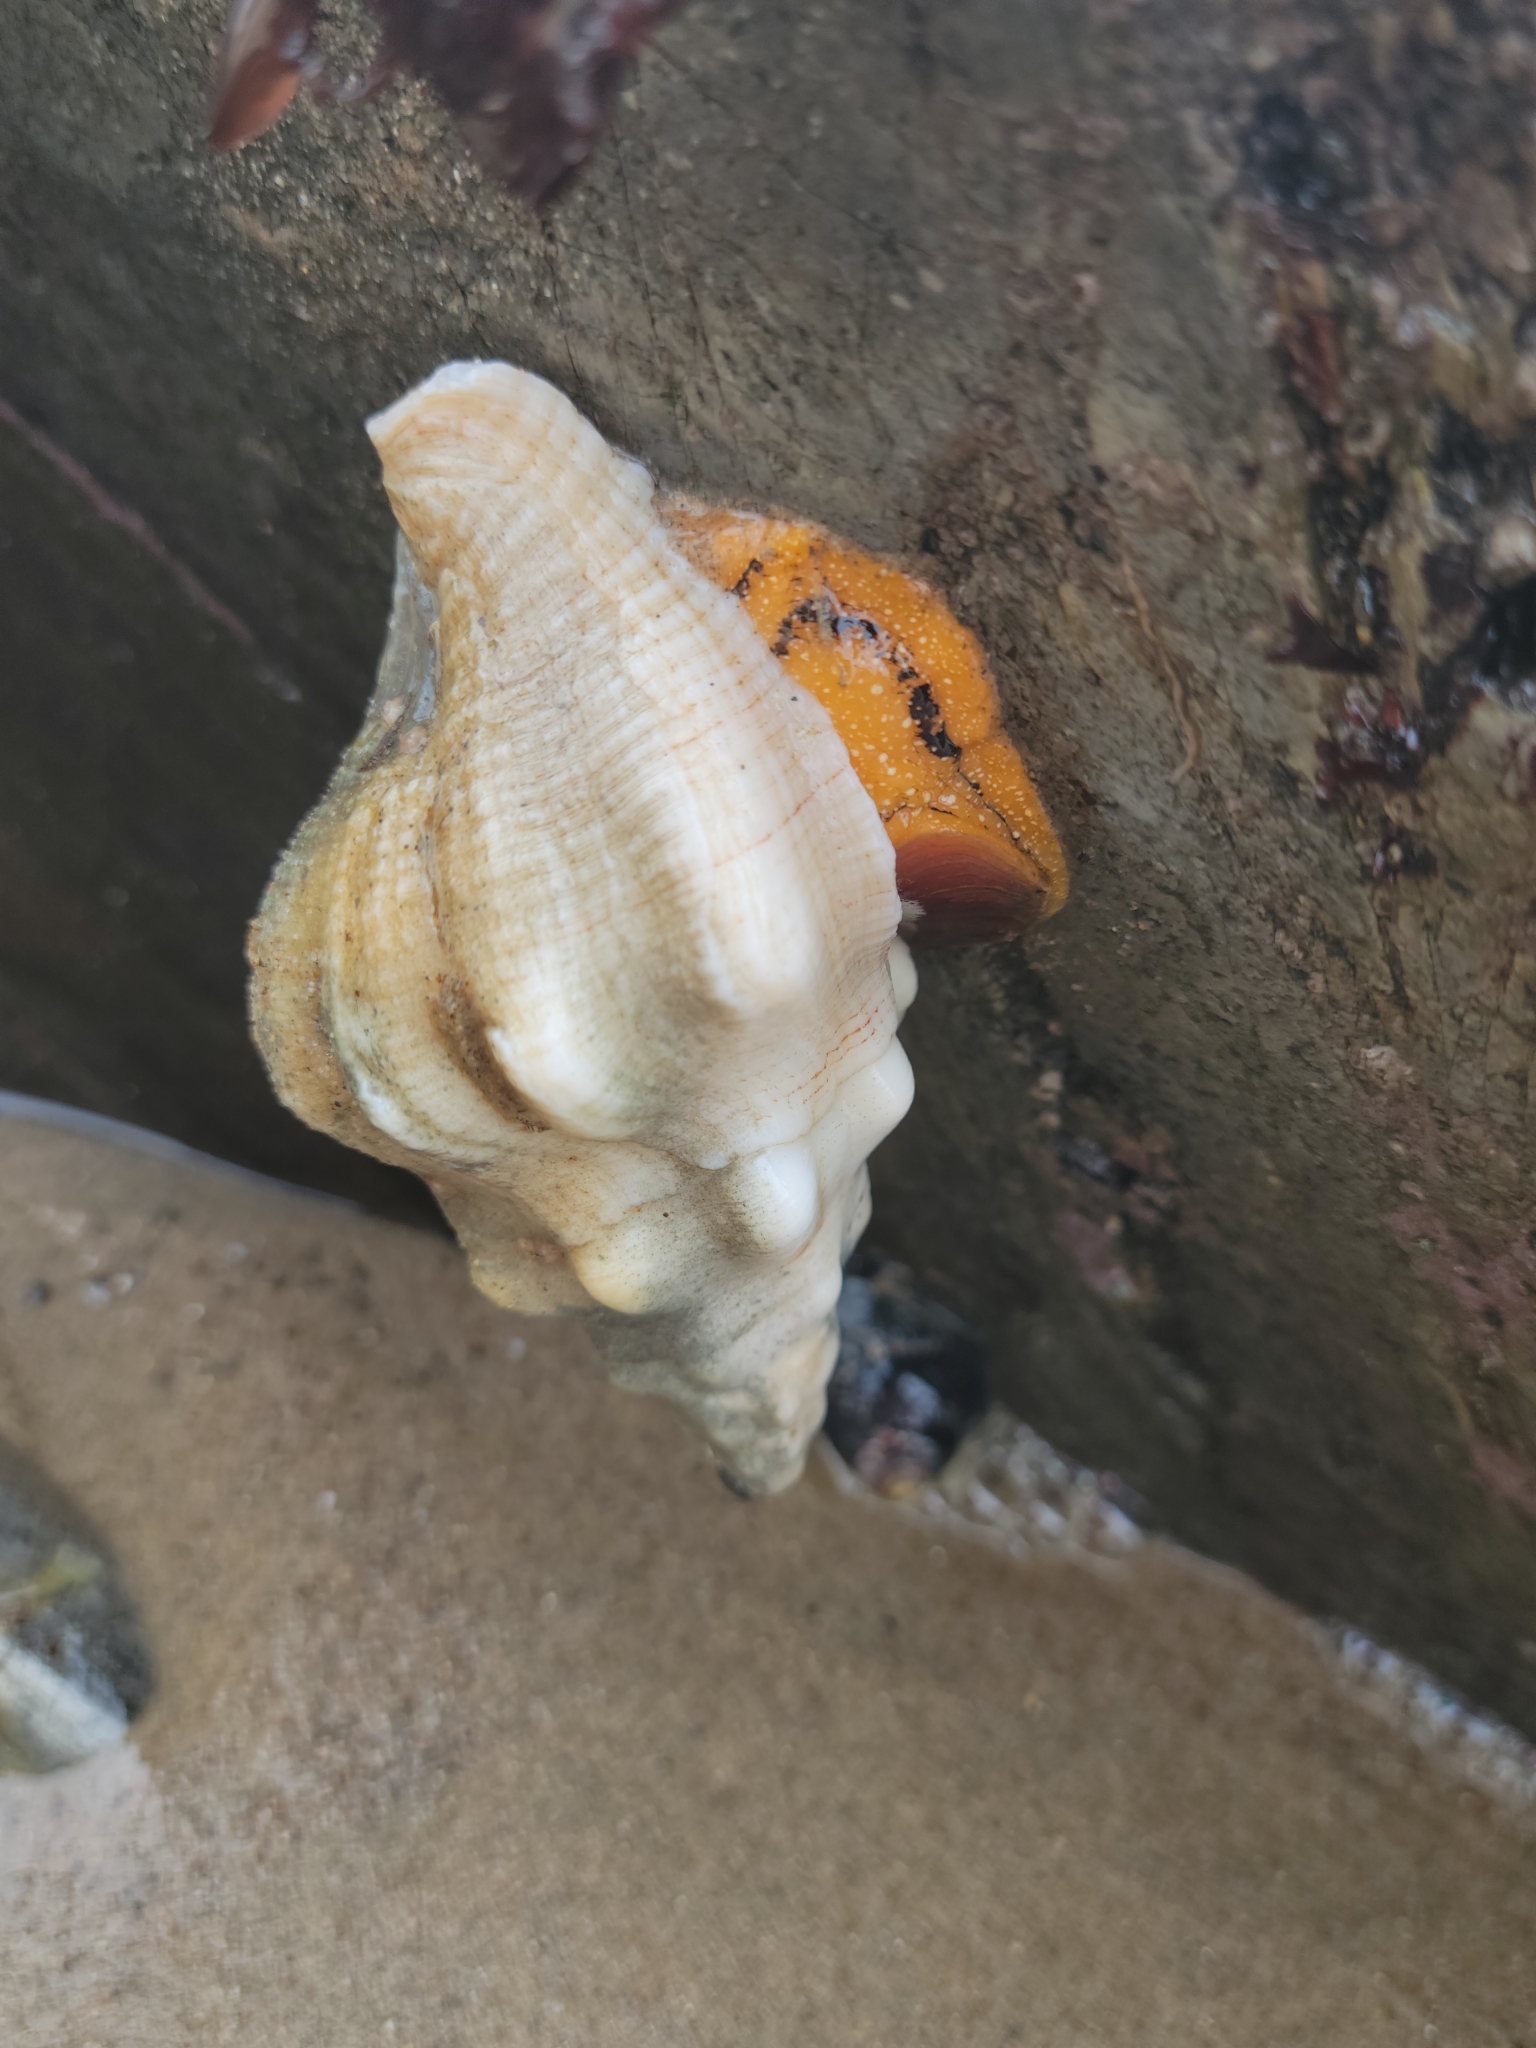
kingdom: Animalia
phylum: Mollusca
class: Gastropoda
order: Neogastropoda
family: Austrosiphonidae
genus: Kelletia
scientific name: Kelletia kelletii
